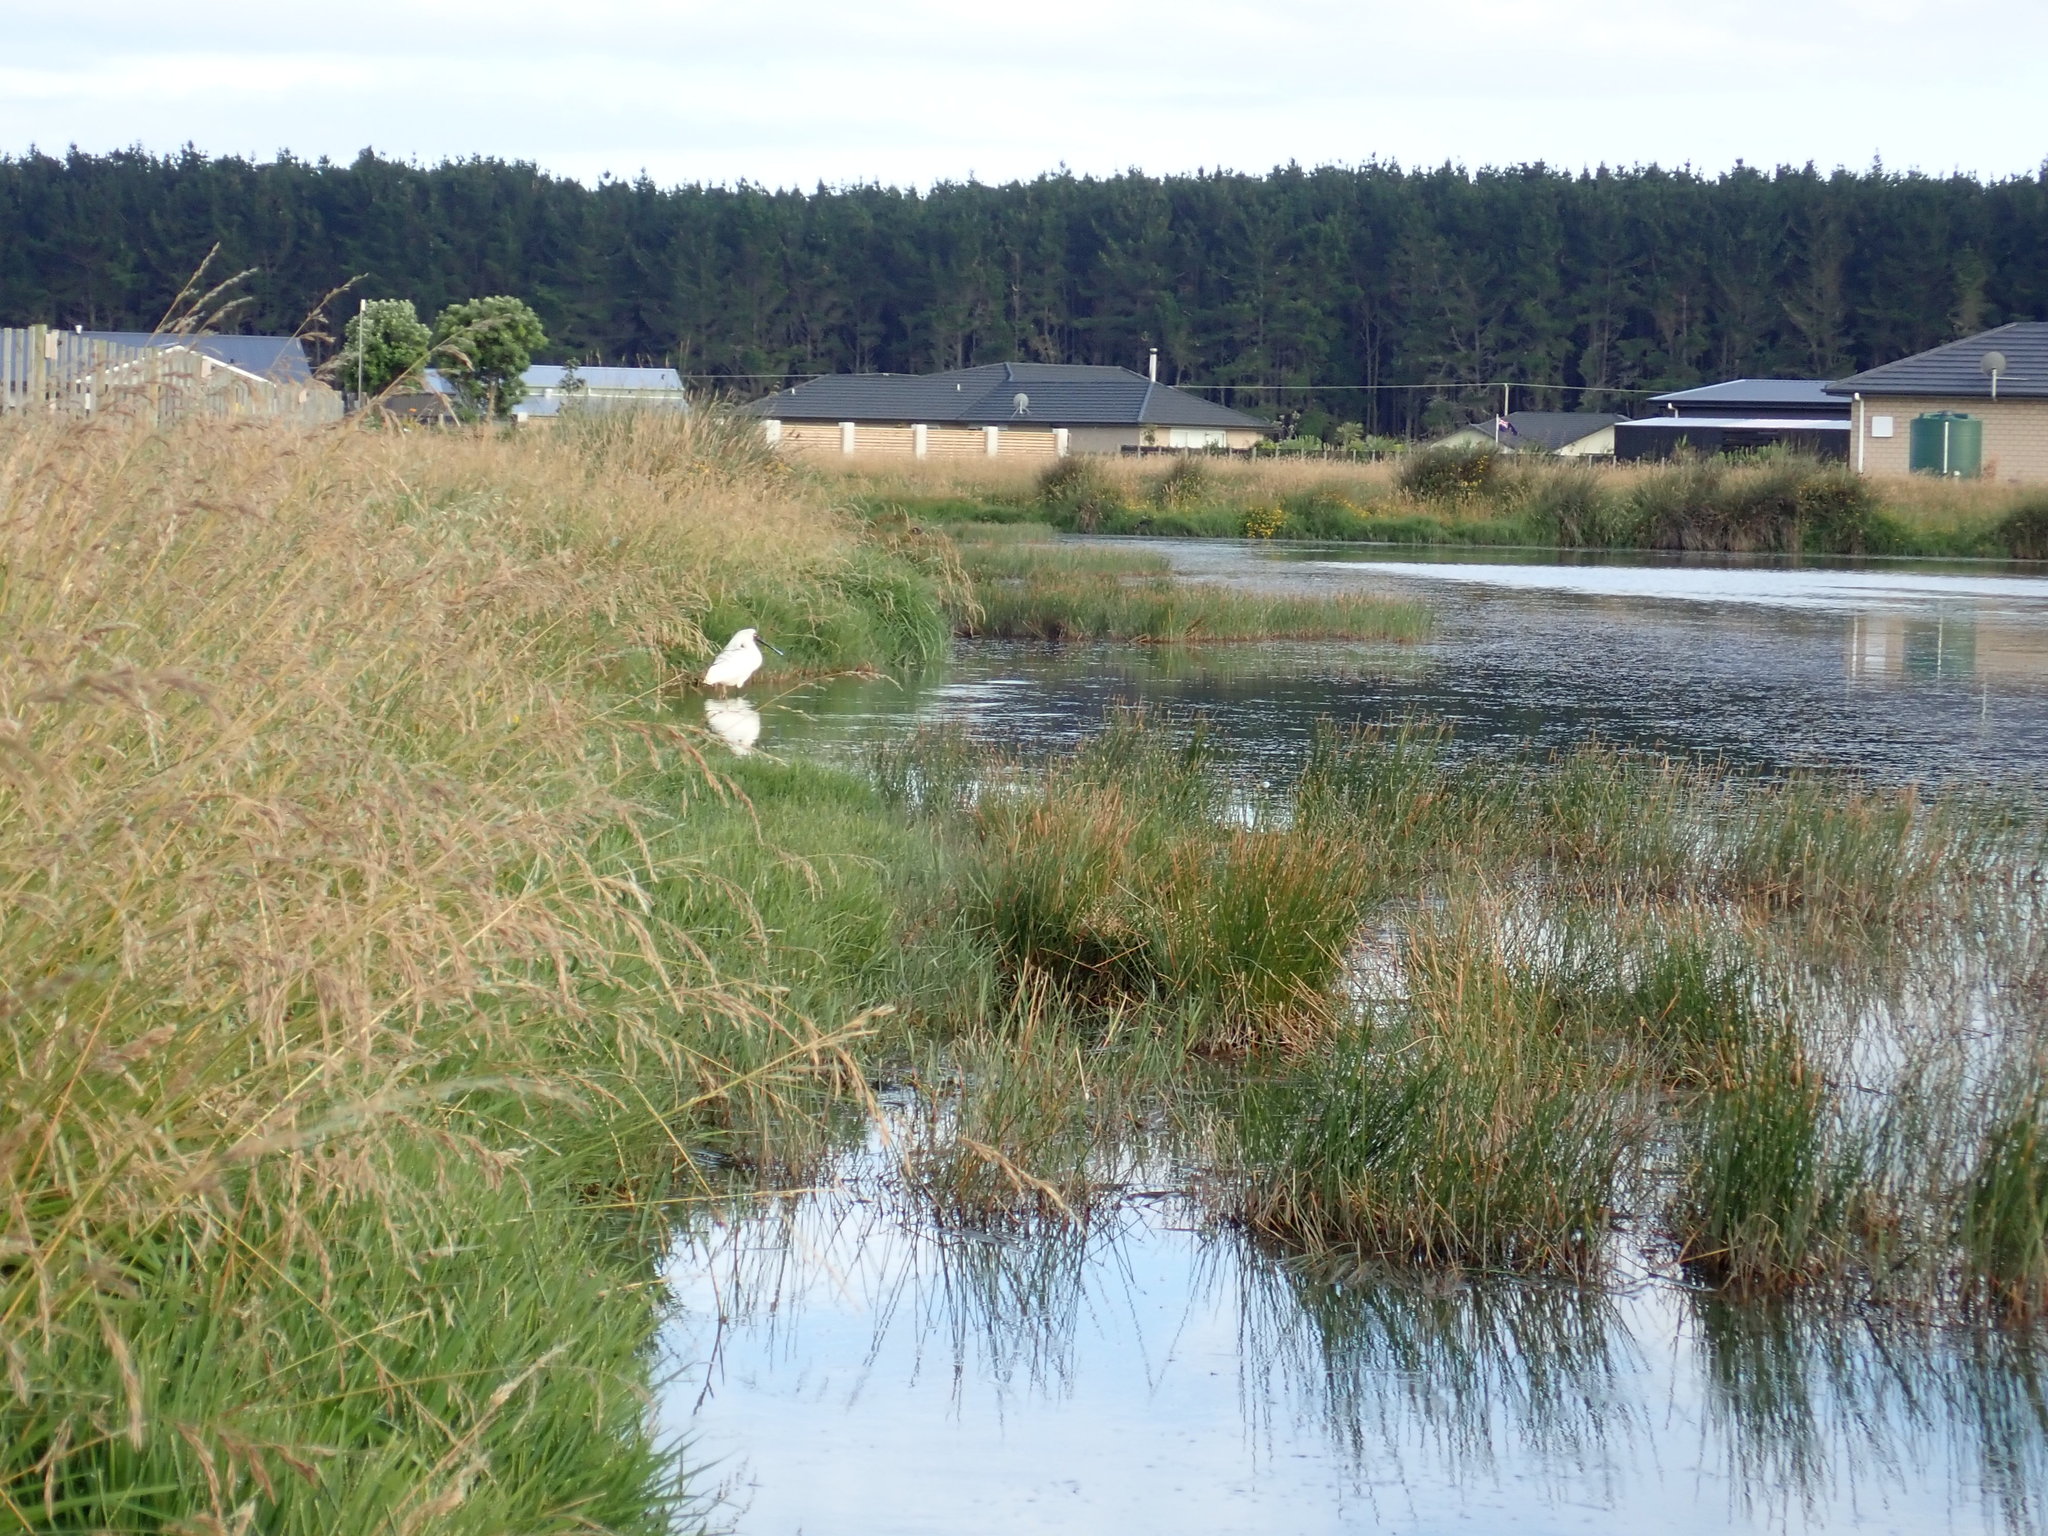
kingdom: Animalia
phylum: Chordata
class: Aves
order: Pelecaniformes
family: Threskiornithidae
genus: Platalea
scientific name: Platalea regia
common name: Royal spoonbill
